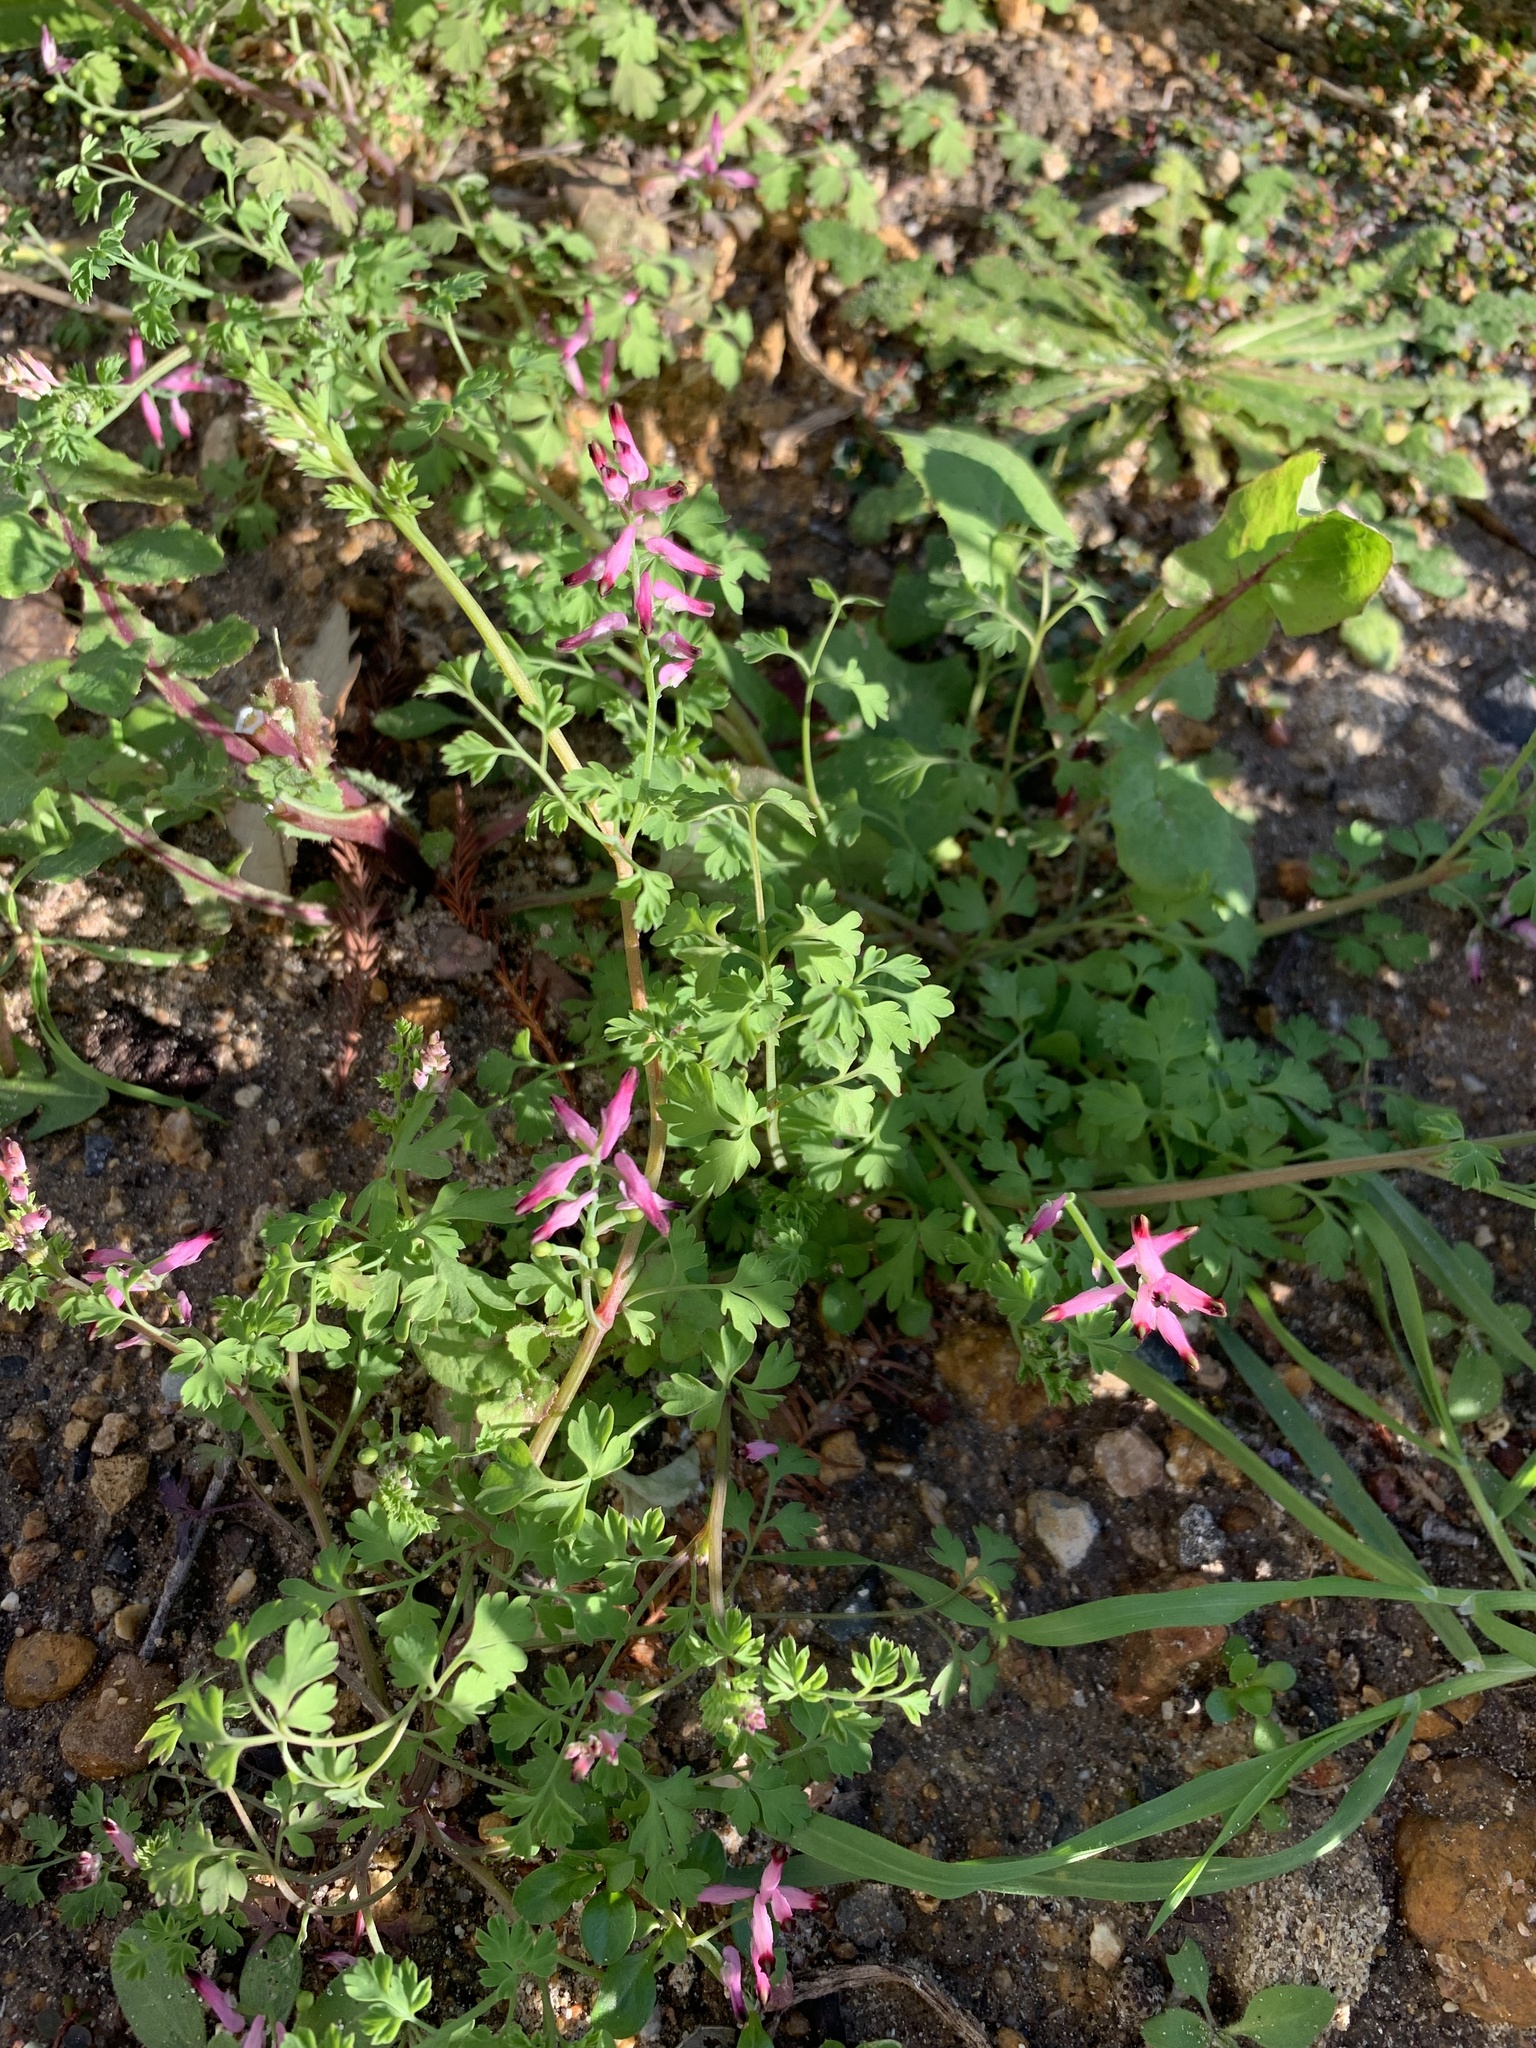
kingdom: Plantae
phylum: Tracheophyta
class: Magnoliopsida
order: Ranunculales
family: Papaveraceae
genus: Fumaria
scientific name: Fumaria muralis
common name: Common ramping-fumitory
